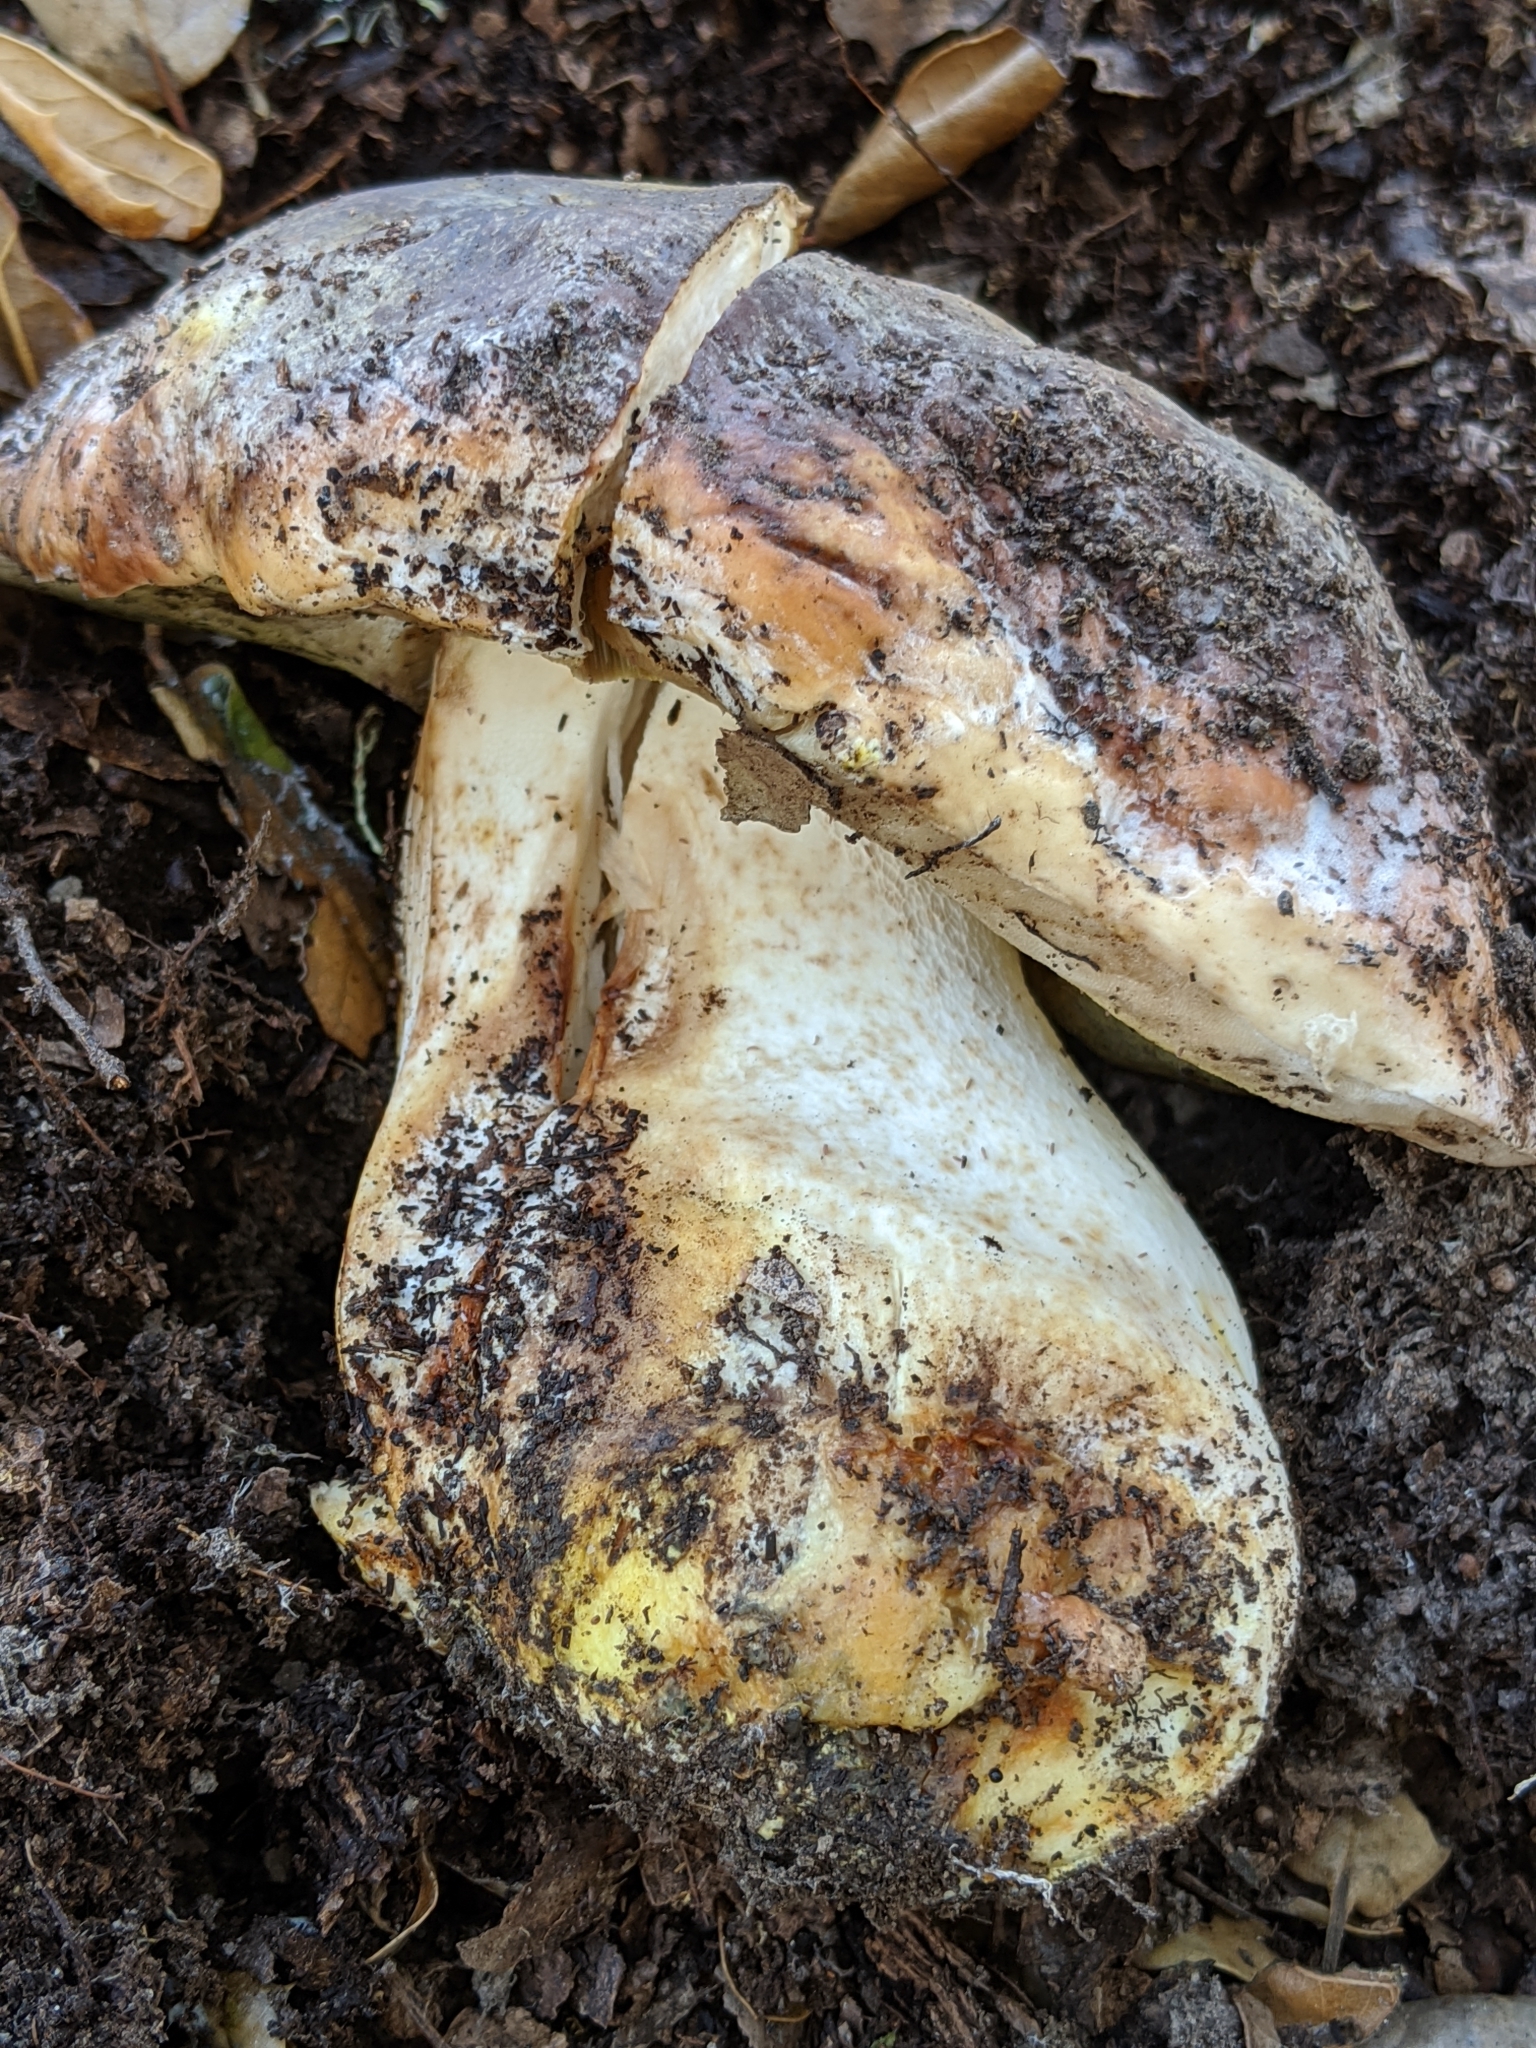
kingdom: Fungi
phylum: Basidiomycota
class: Agaricomycetes
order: Boletales
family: Boletaceae
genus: Boletus
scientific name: Boletus regineus
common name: Queen bolete
